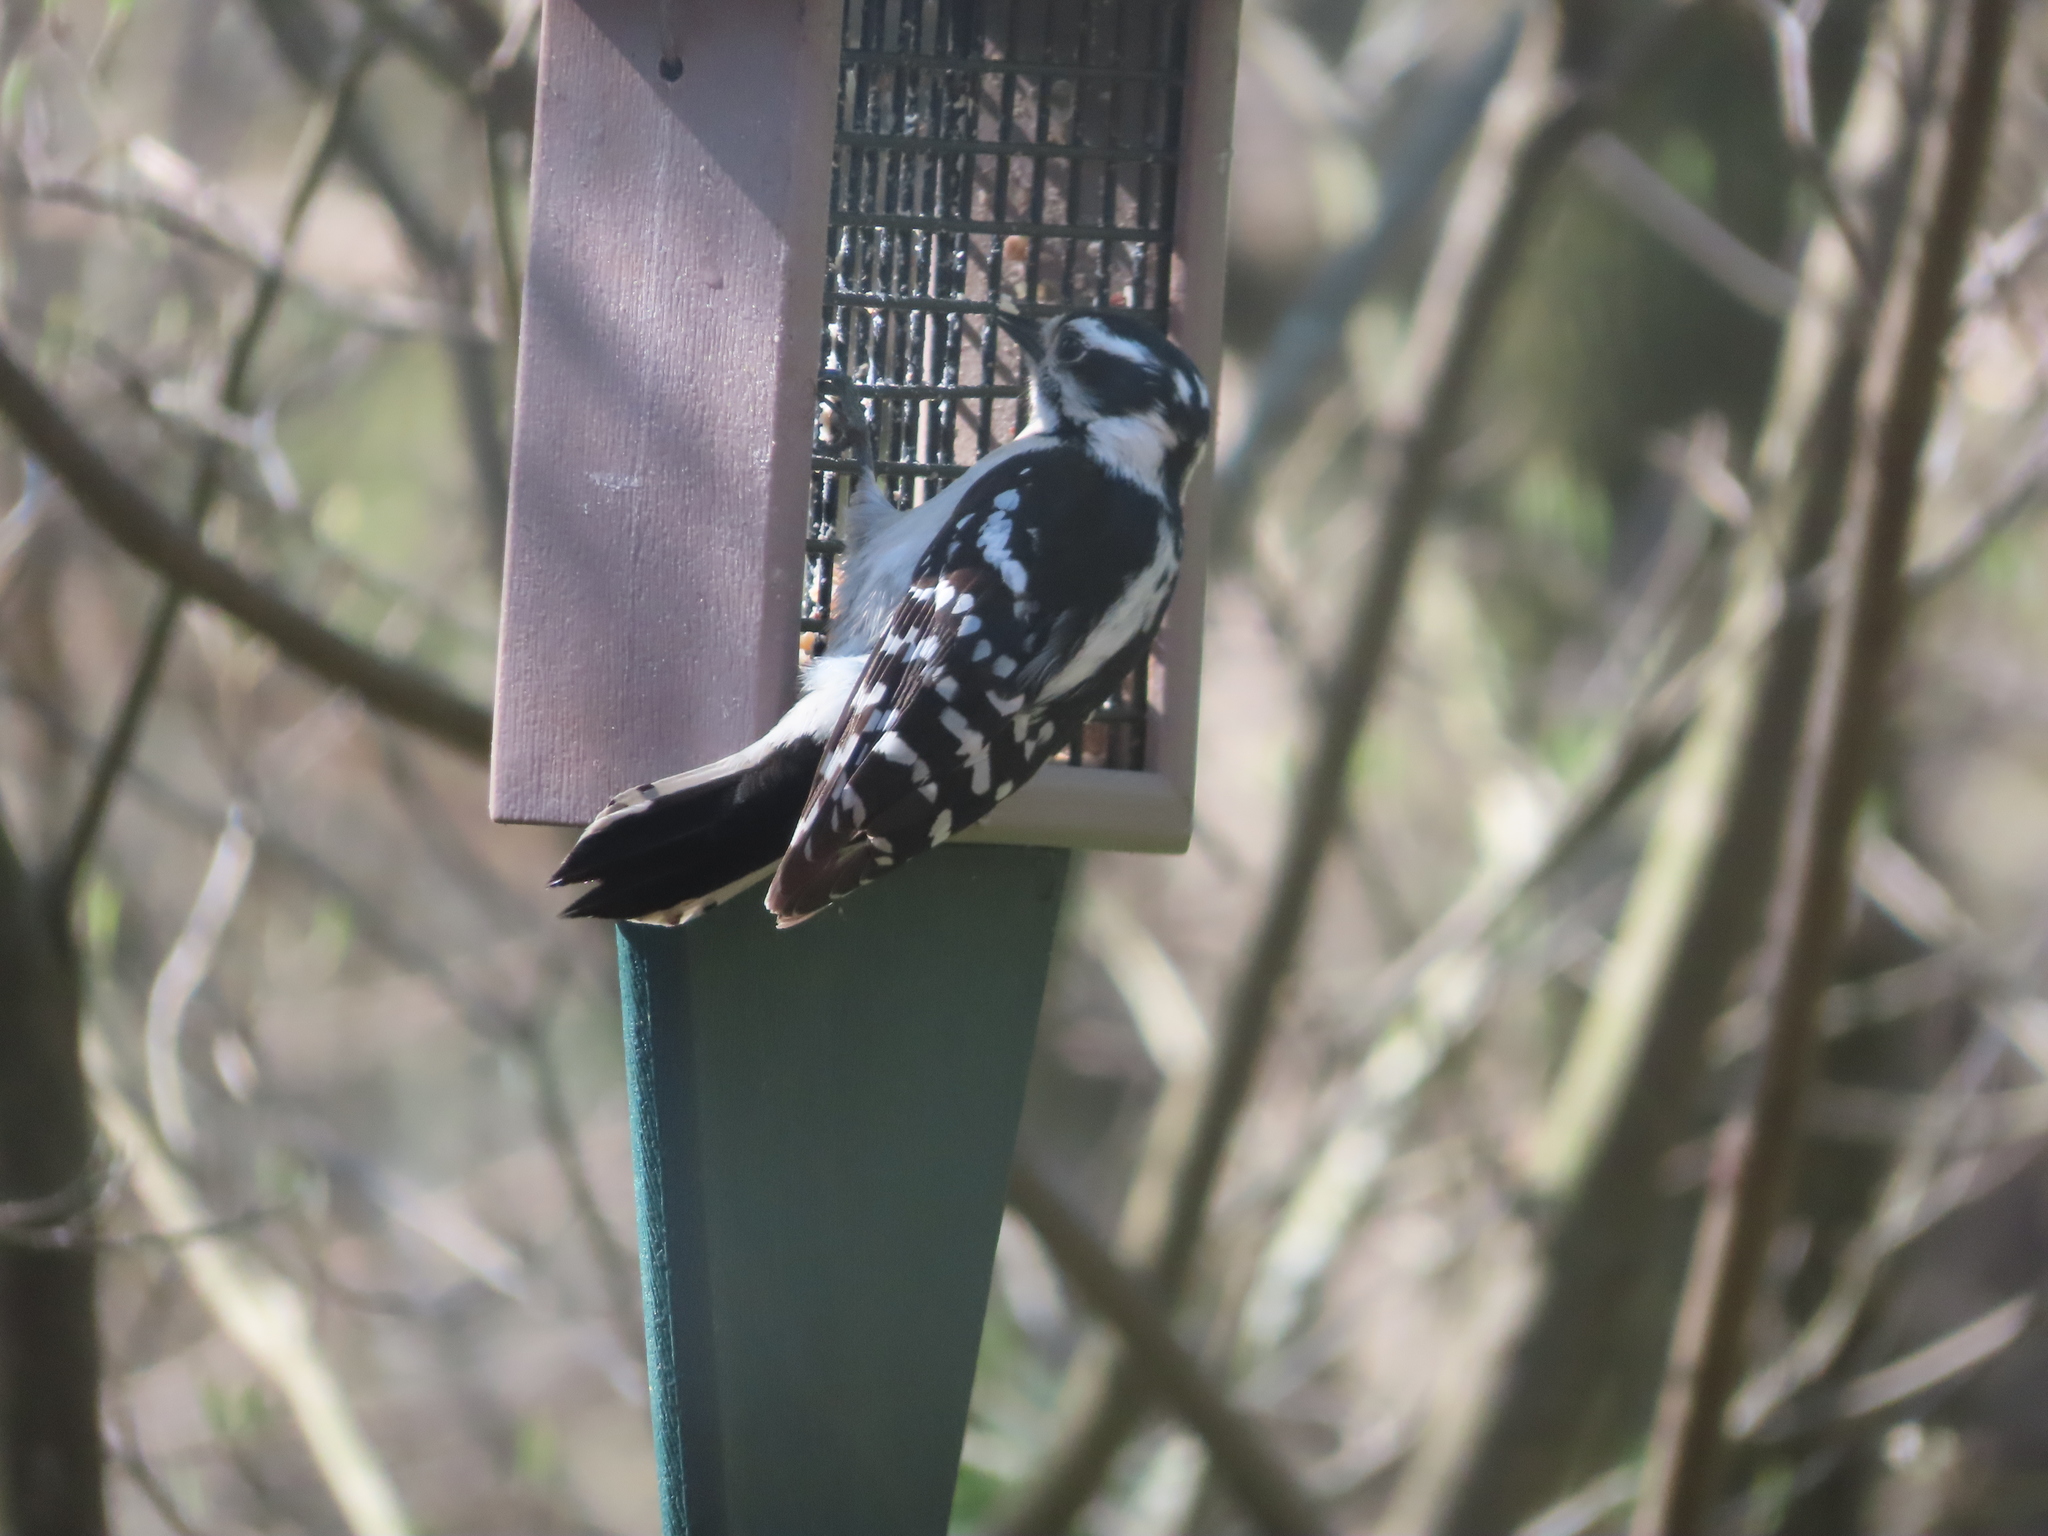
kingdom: Animalia
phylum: Chordata
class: Aves
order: Piciformes
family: Picidae
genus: Dryobates
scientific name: Dryobates pubescens
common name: Downy woodpecker
